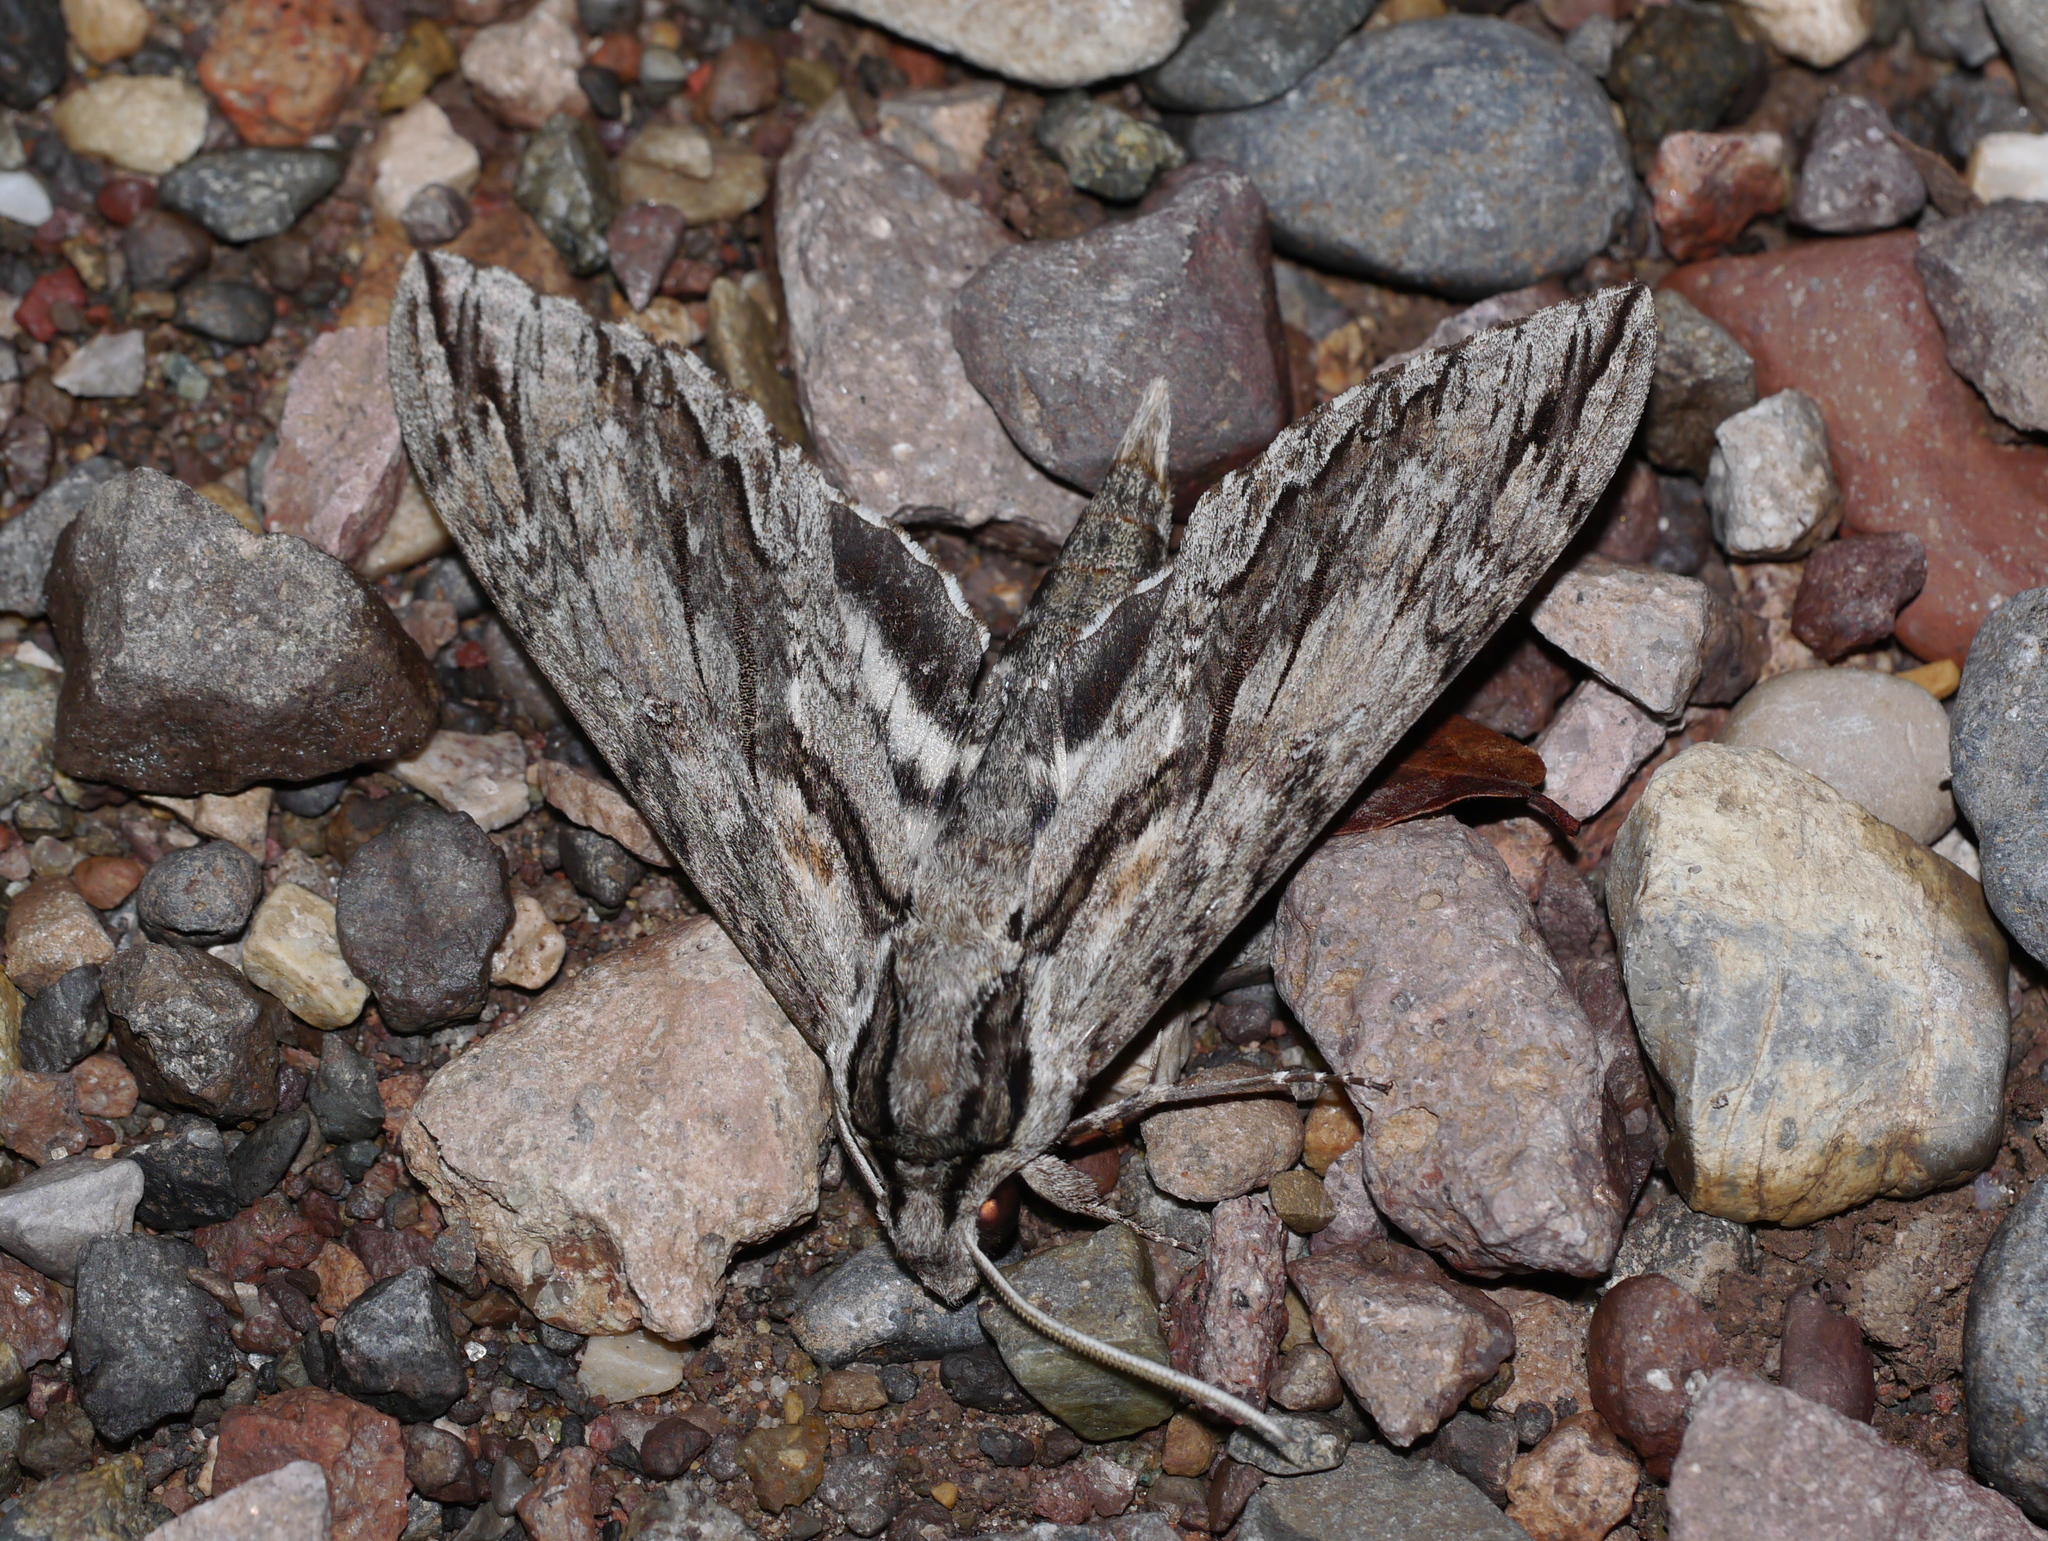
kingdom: Animalia
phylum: Arthropoda
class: Insecta
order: Lepidoptera
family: Sphingidae
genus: Lintneria
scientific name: Lintneria istar
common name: Istar sphinx
